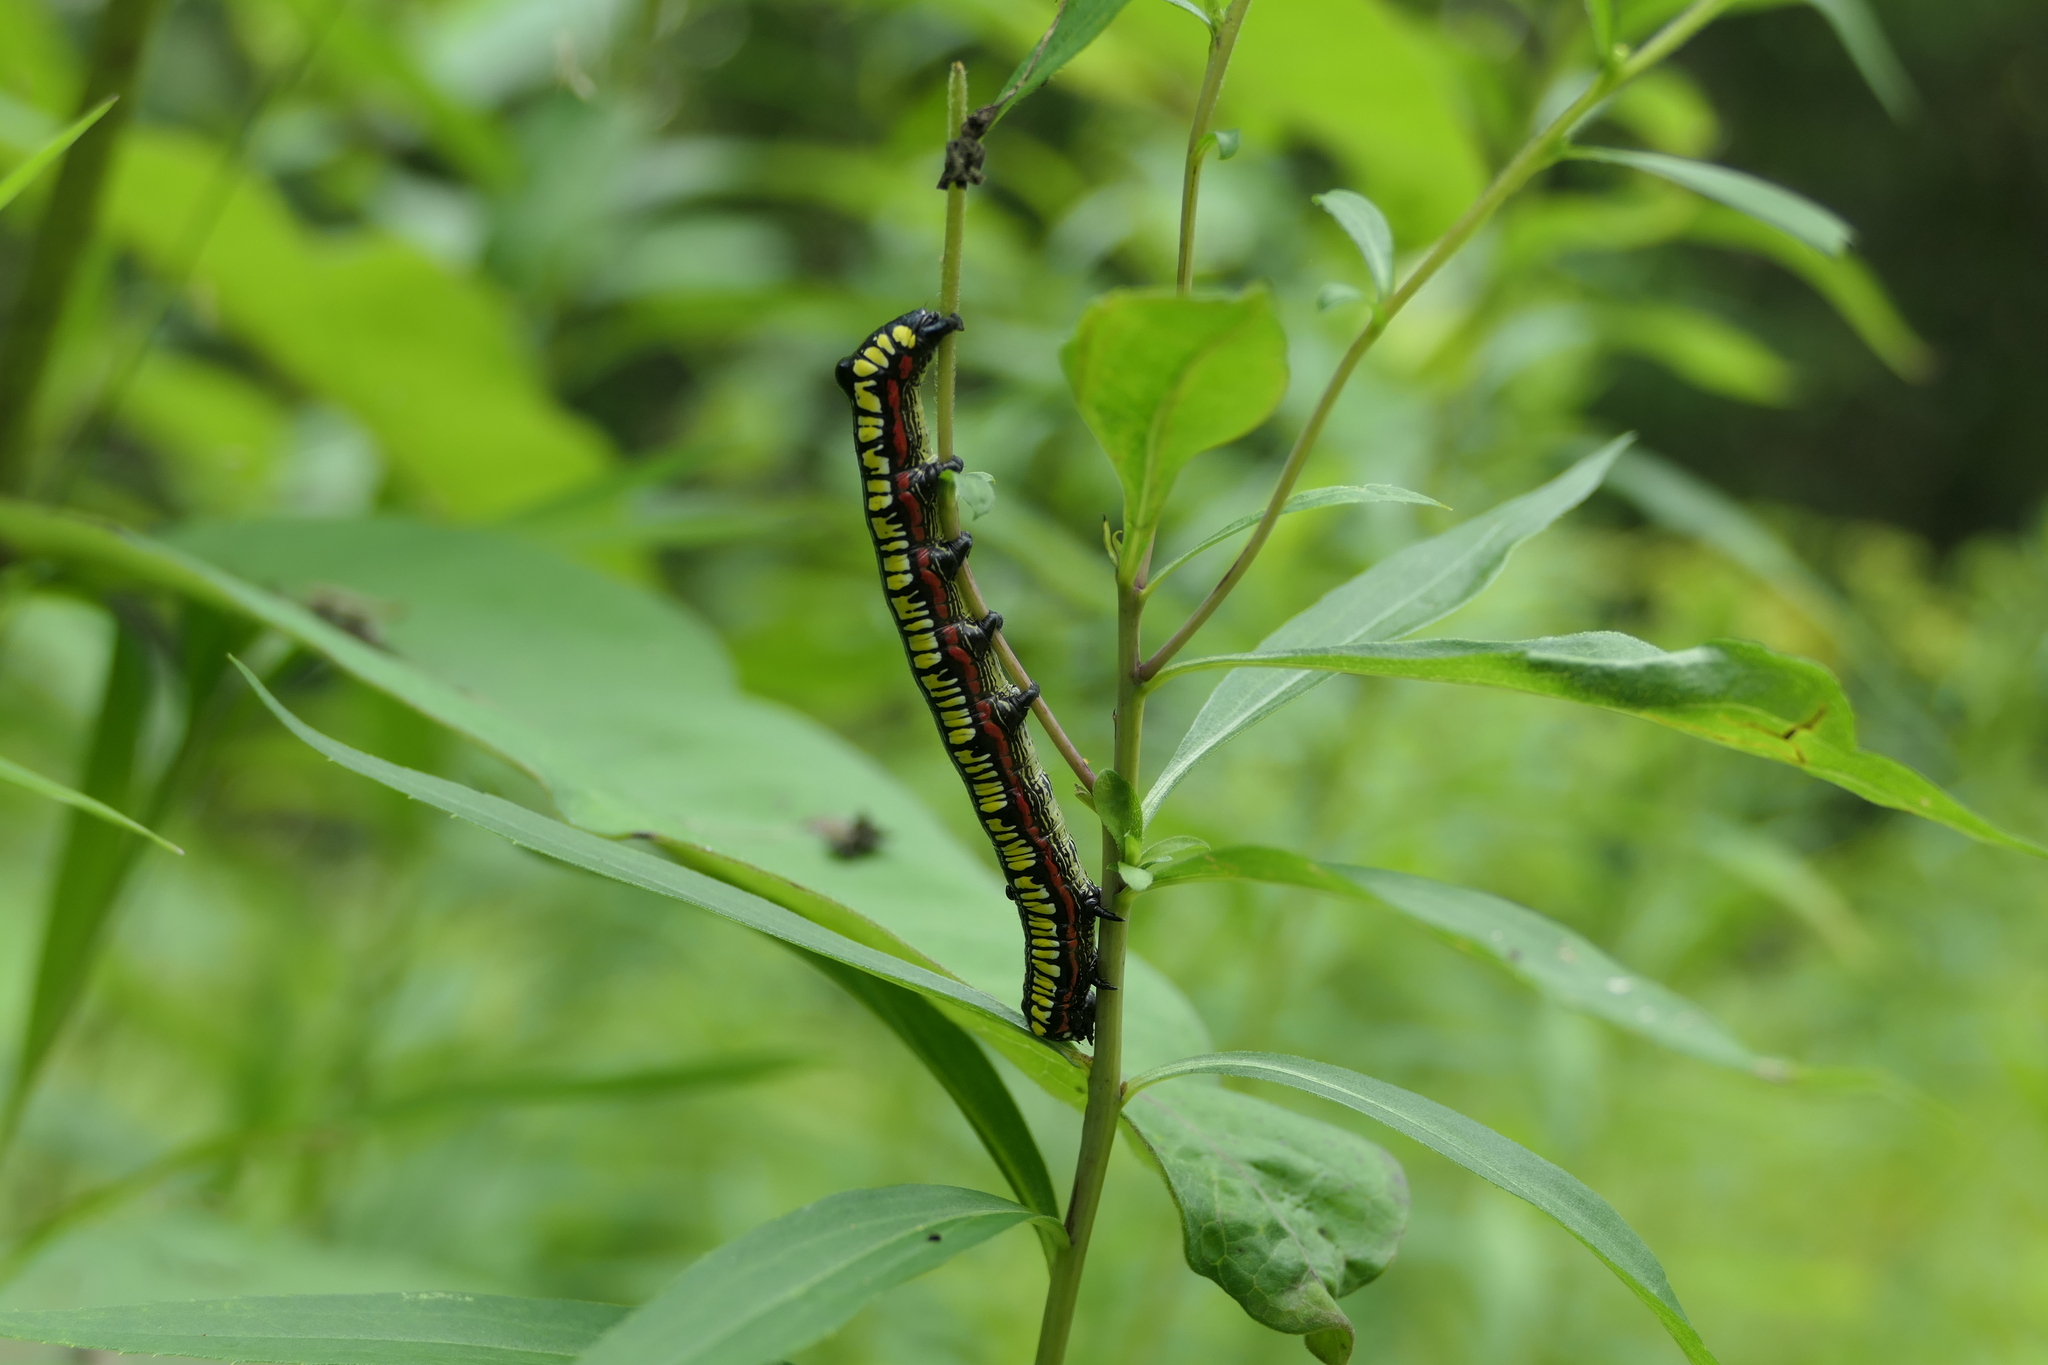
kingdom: Animalia
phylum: Arthropoda
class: Insecta
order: Lepidoptera
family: Noctuidae
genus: Cucullia
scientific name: Cucullia convexipennis
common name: Brown-hooded owlet
